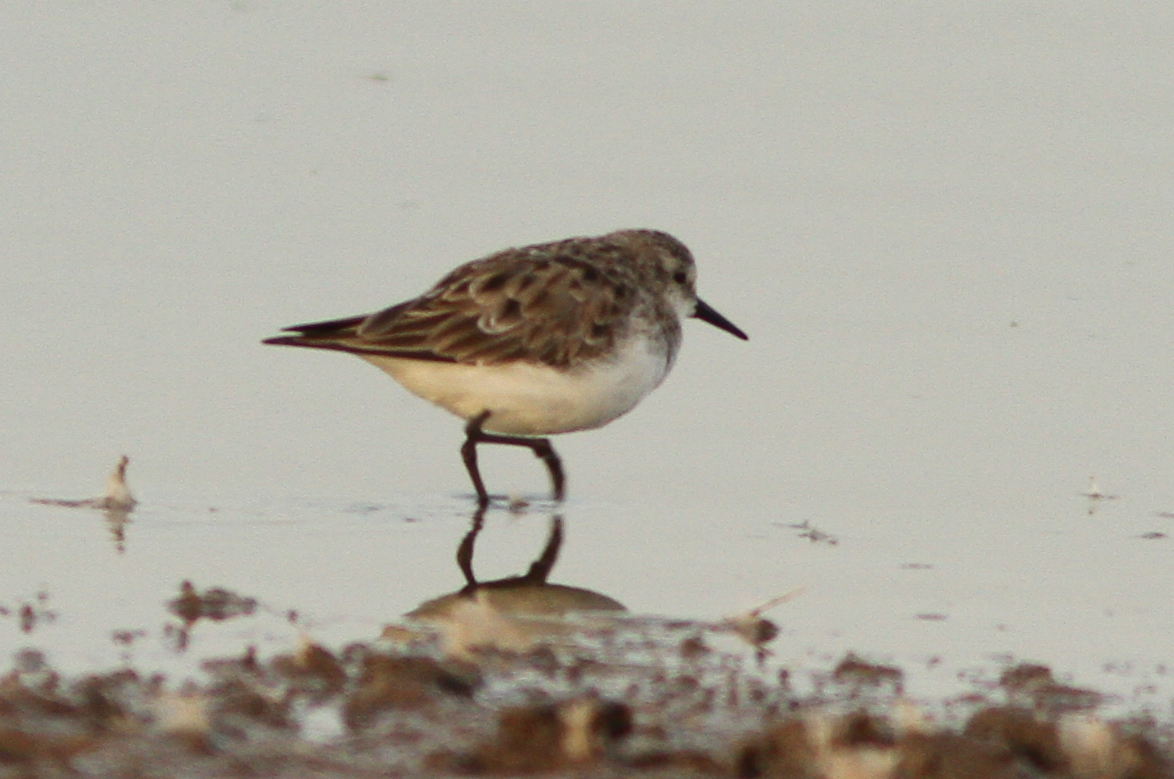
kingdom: Animalia
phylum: Chordata
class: Aves
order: Charadriiformes
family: Scolopacidae
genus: Calidris
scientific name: Calidris minuta
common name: Little stint
